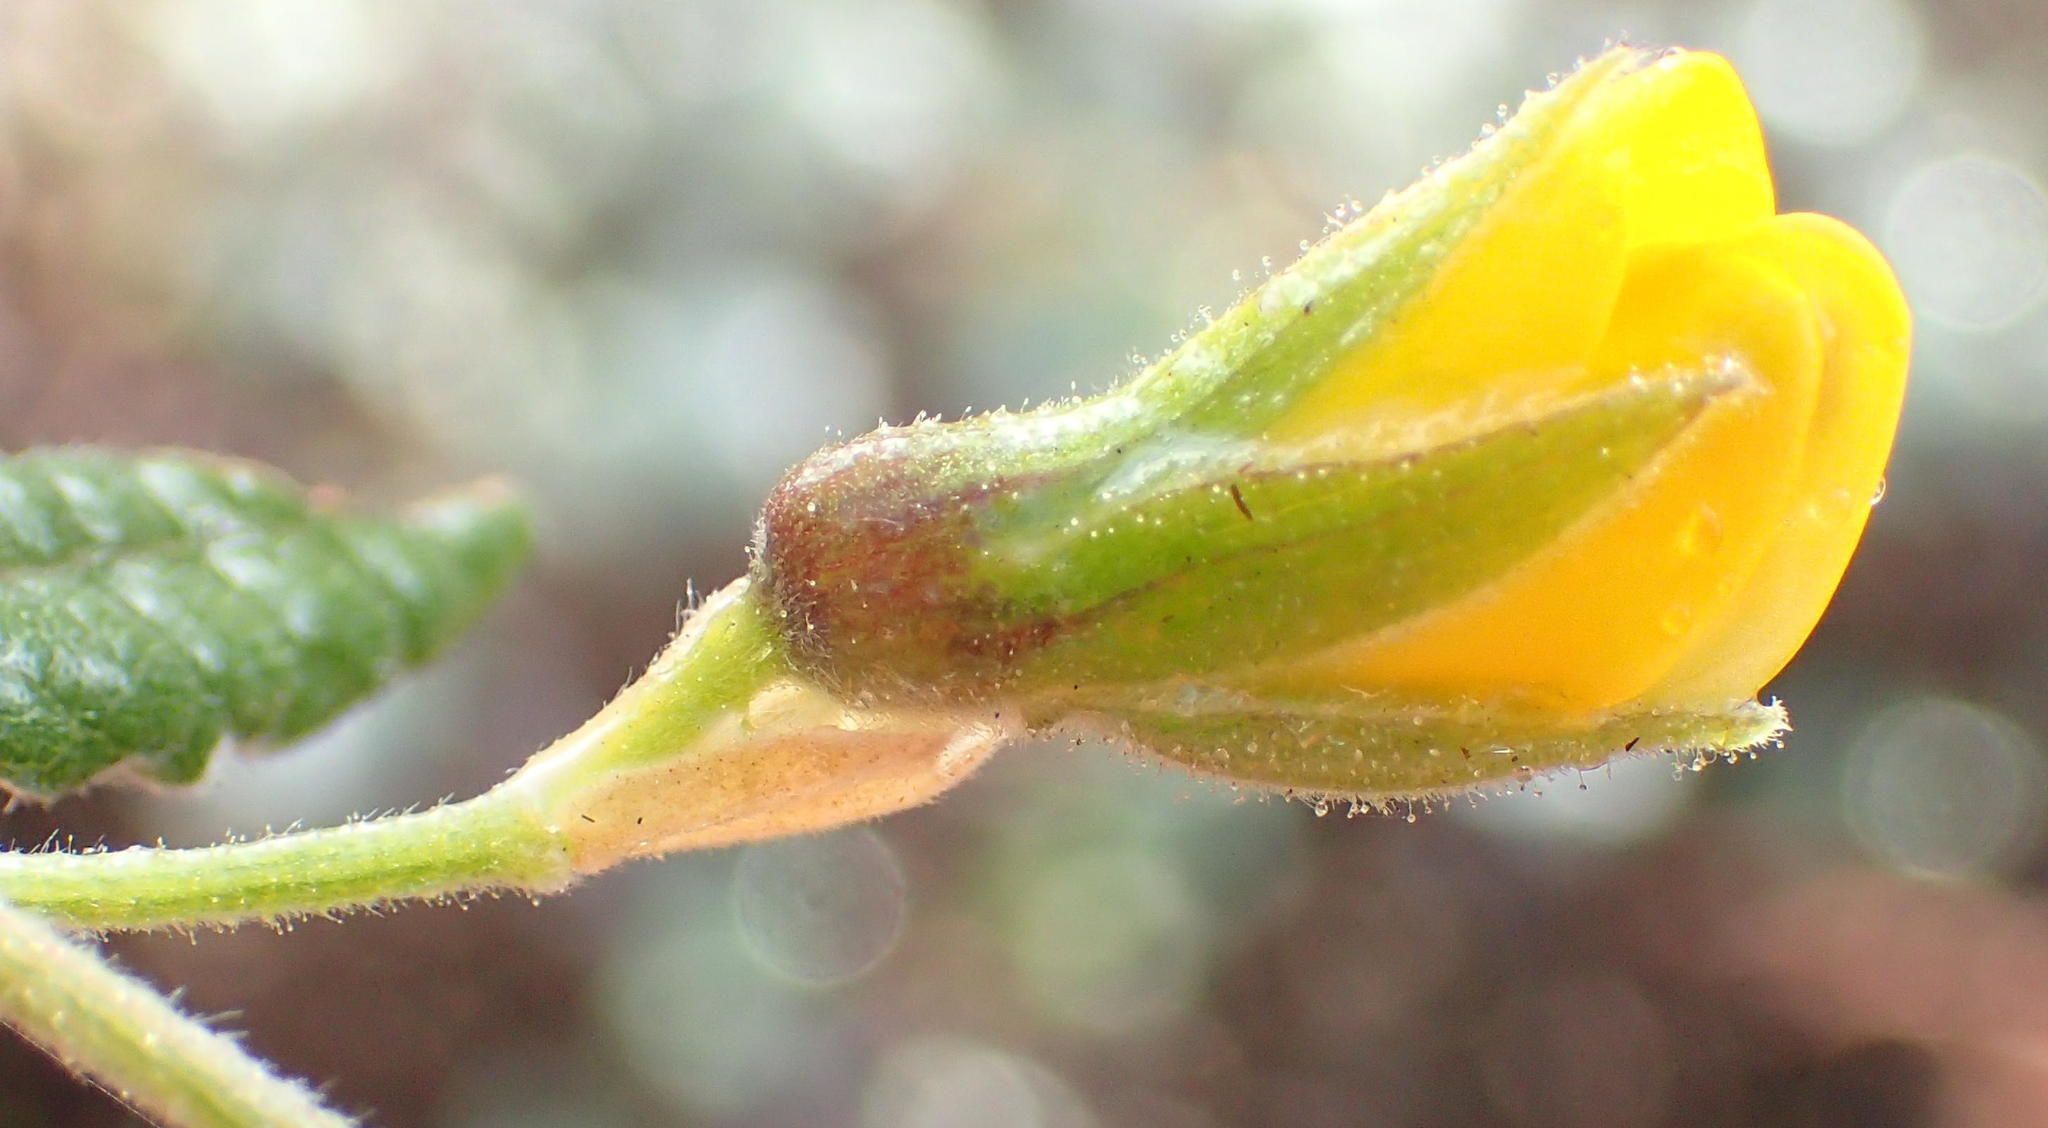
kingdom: Plantae
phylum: Tracheophyta
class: Magnoliopsida
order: Fabales
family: Fabaceae
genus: Rhynchosia
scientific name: Rhynchosia chrysoscias
